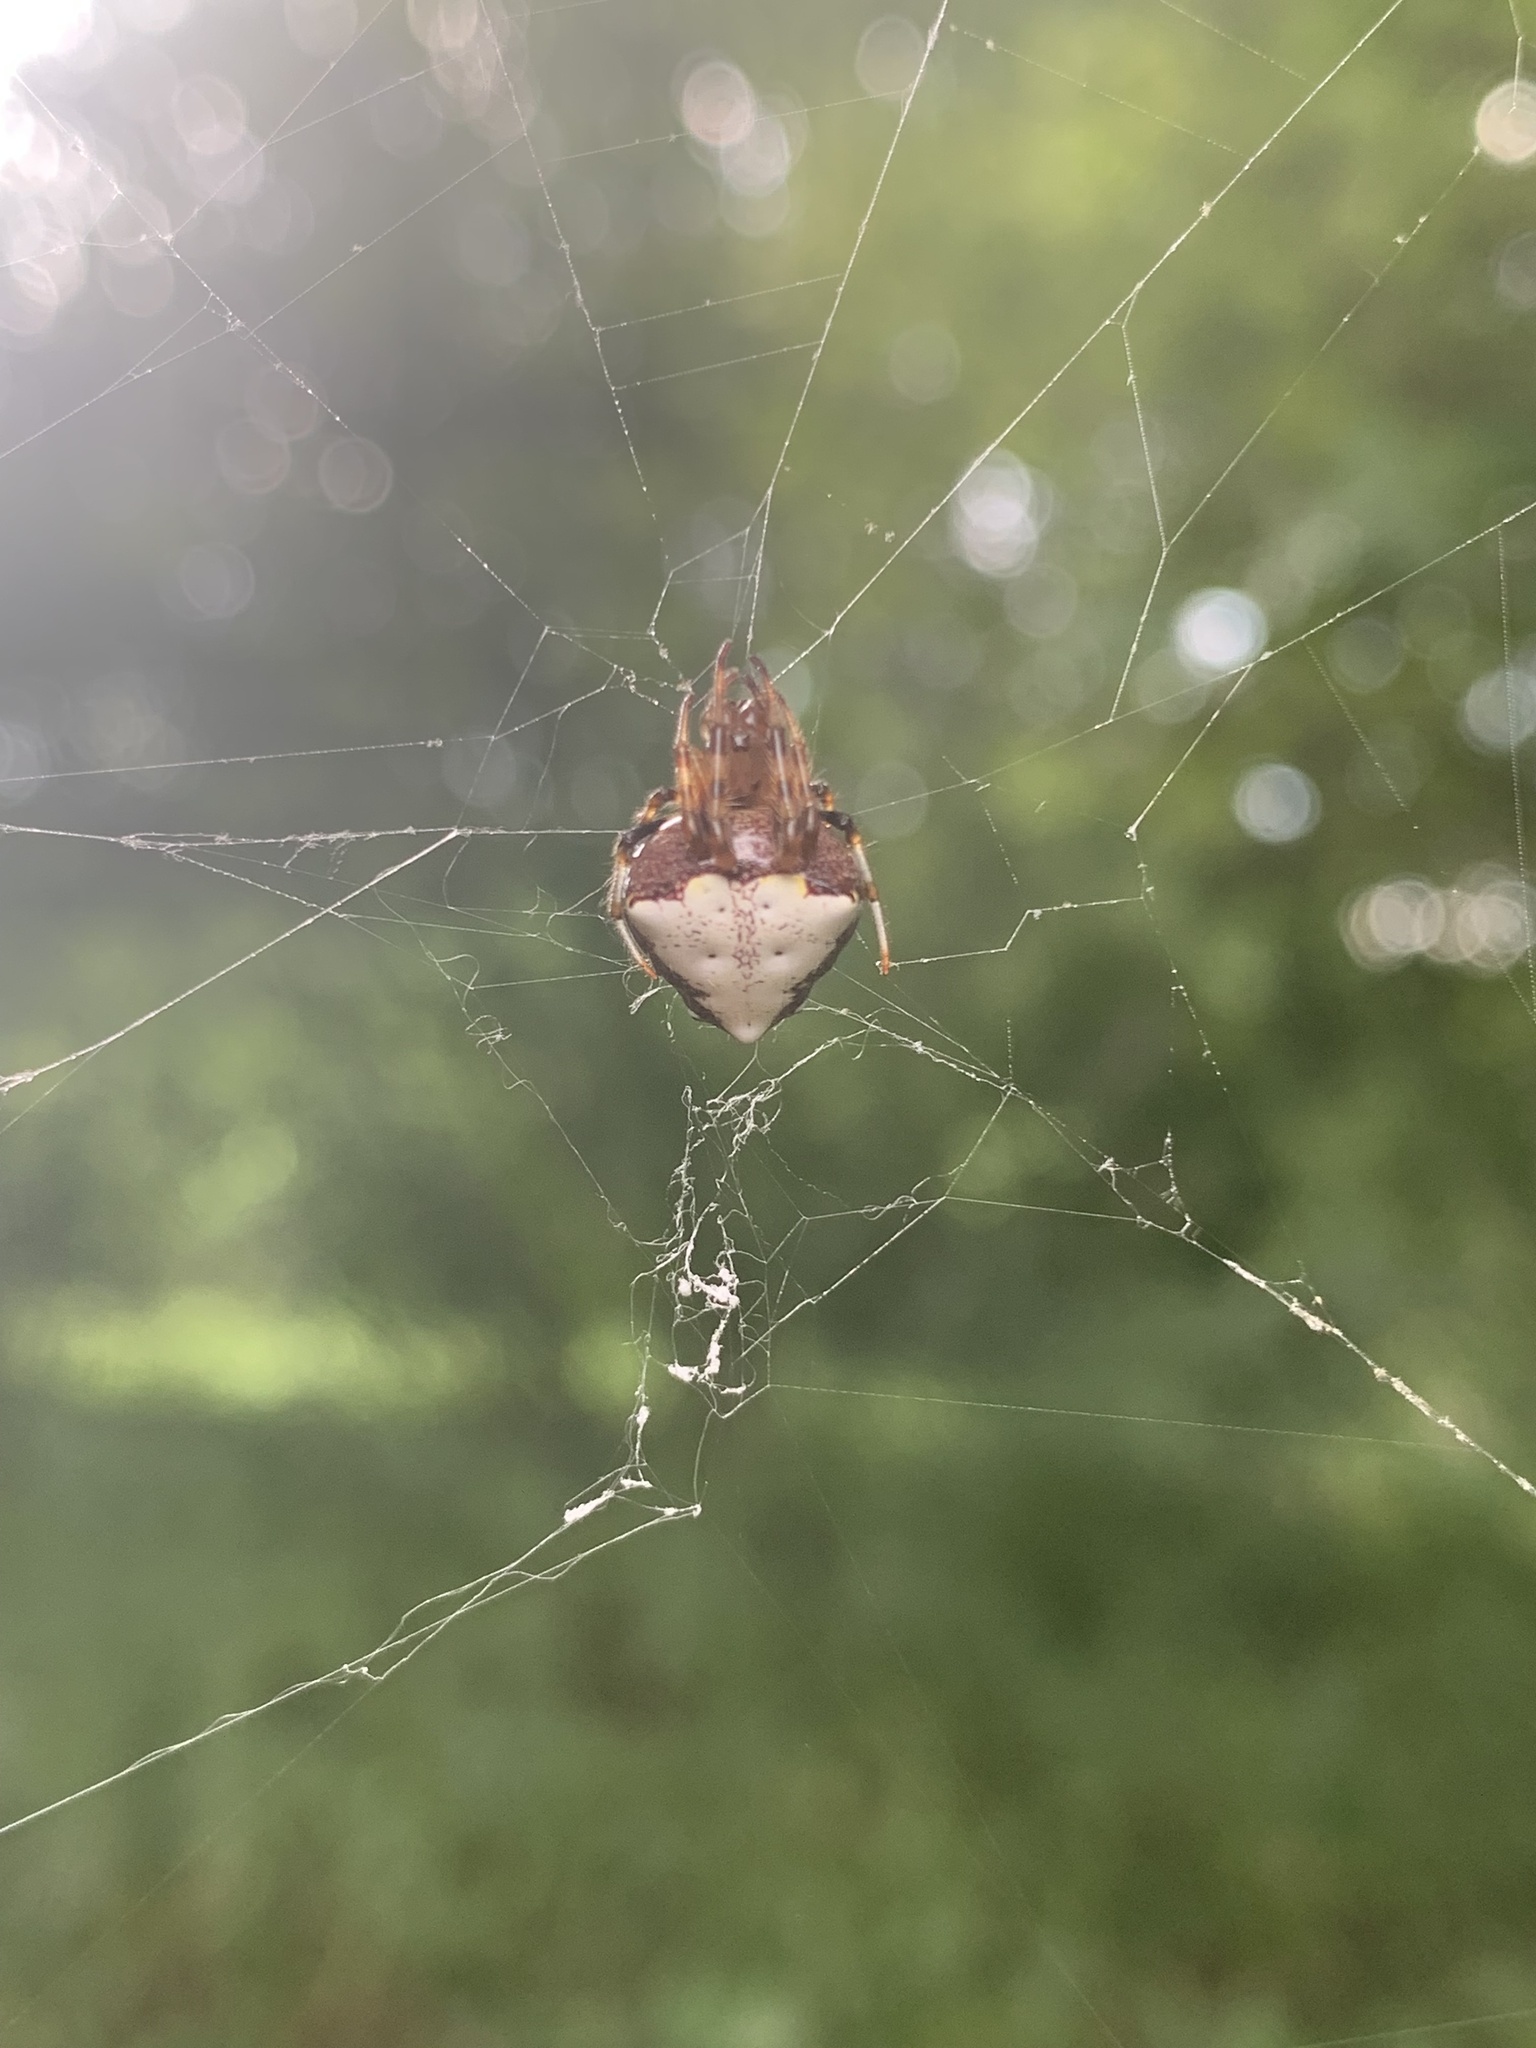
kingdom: Animalia
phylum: Arthropoda
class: Arachnida
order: Araneae
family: Araneidae
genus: Verrucosa
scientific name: Verrucosa arenata
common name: Orb weavers
